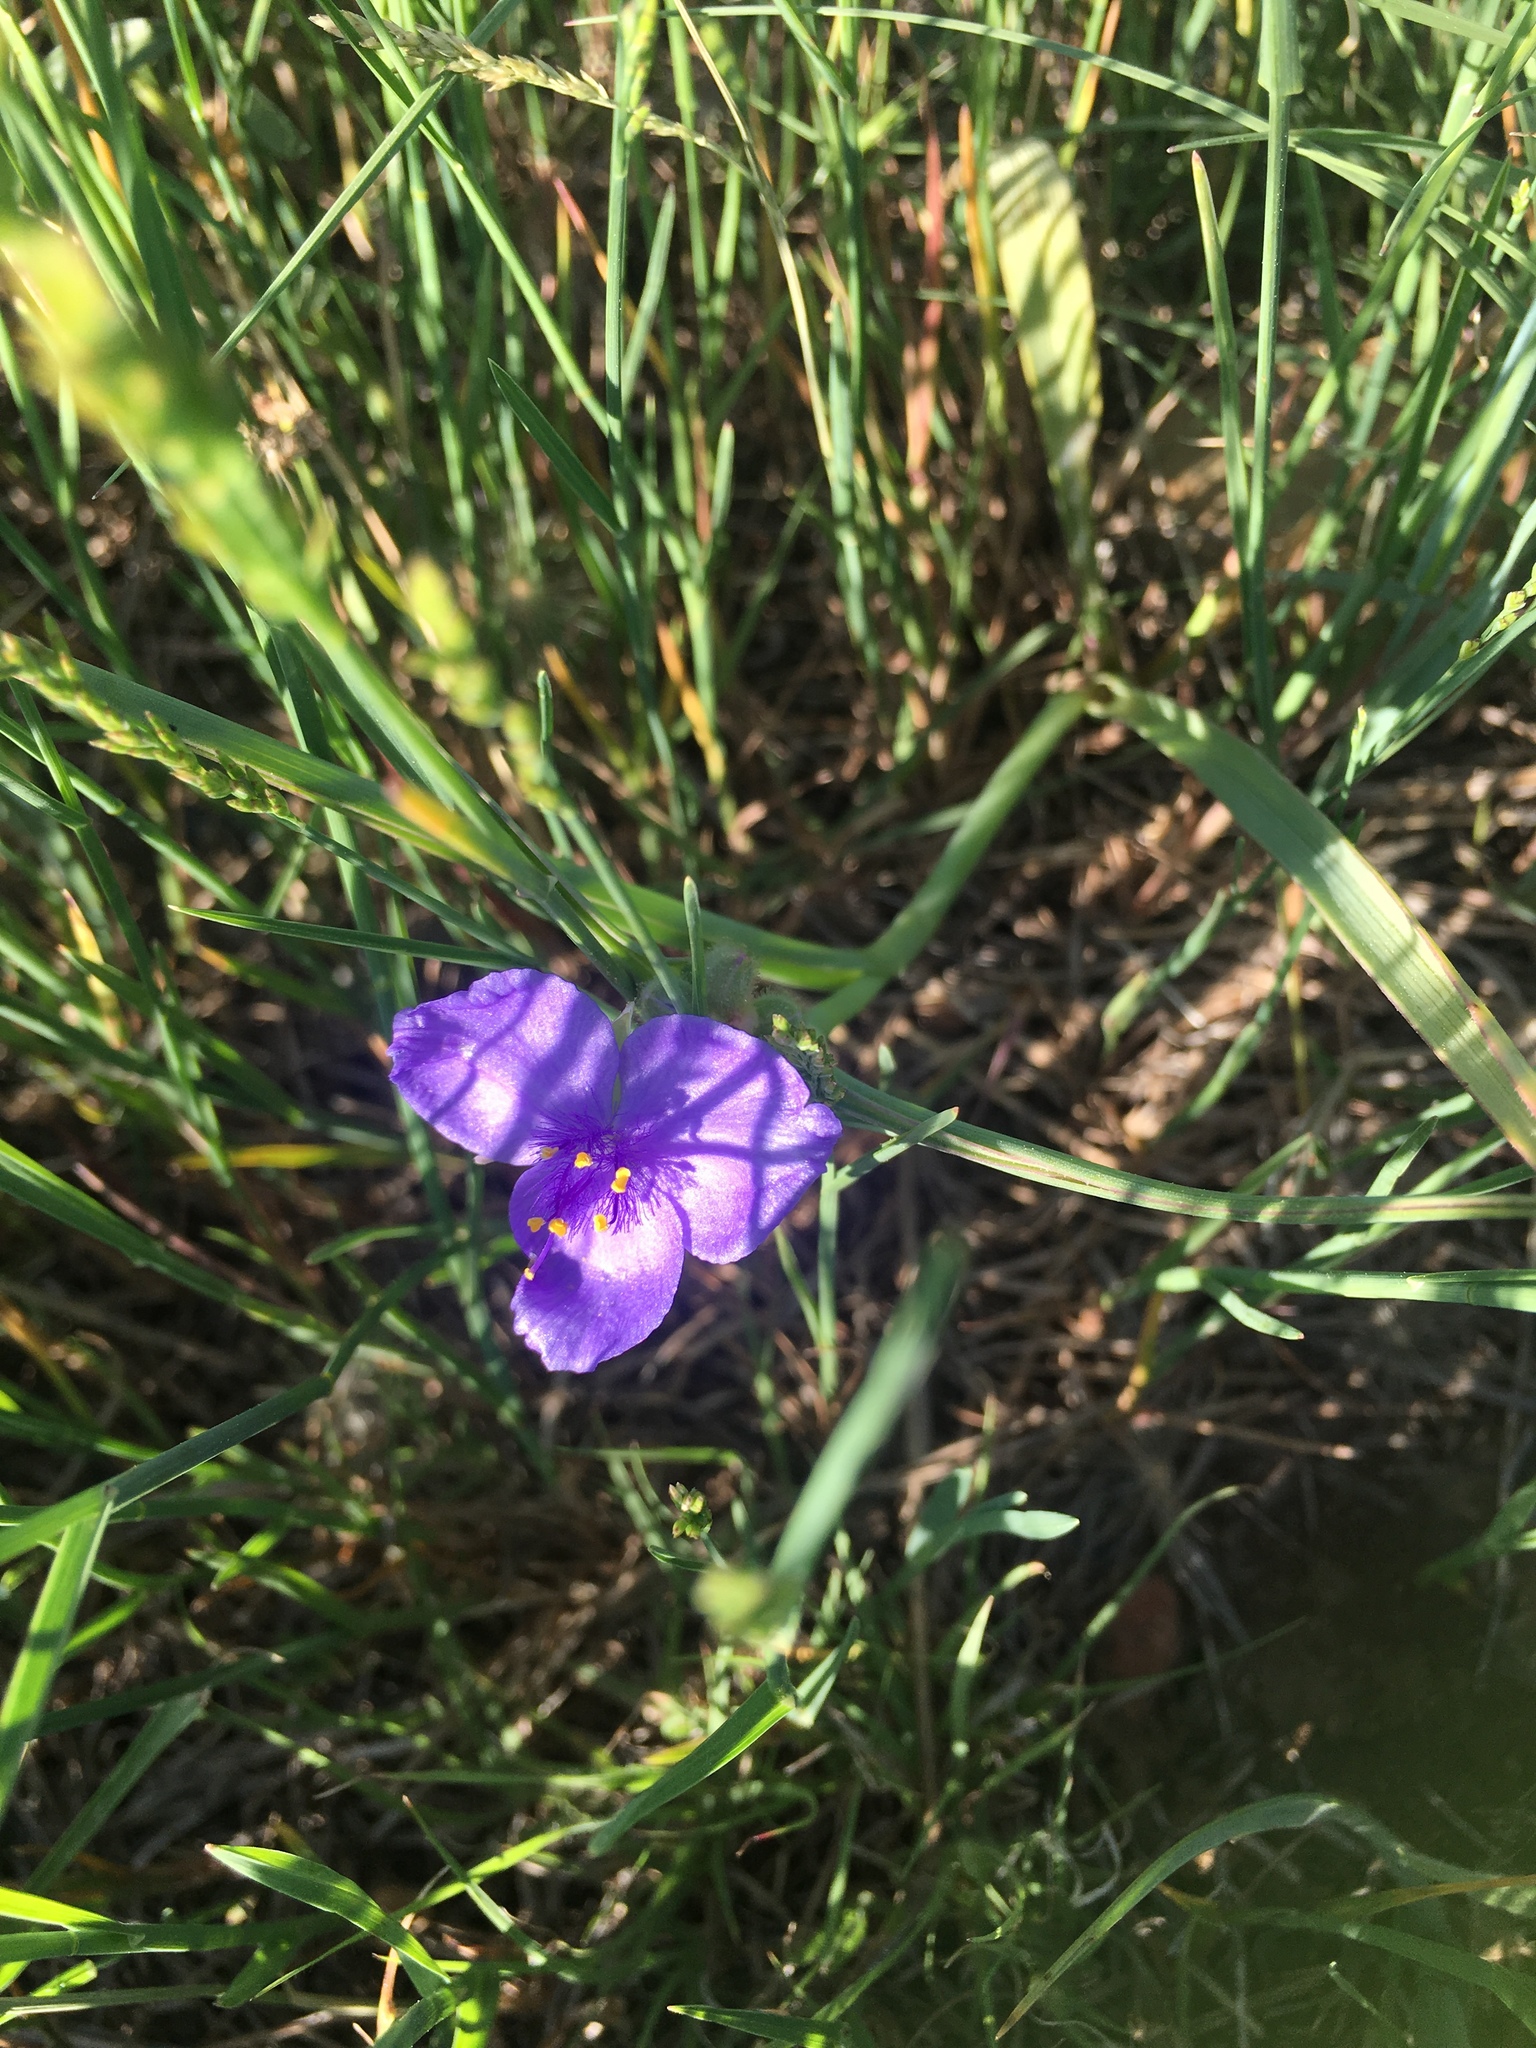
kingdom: Plantae
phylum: Tracheophyta
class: Liliopsida
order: Commelinales
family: Commelinaceae
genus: Tradescantia
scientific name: Tradescantia occidentalis
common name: Prairie spiderwort
